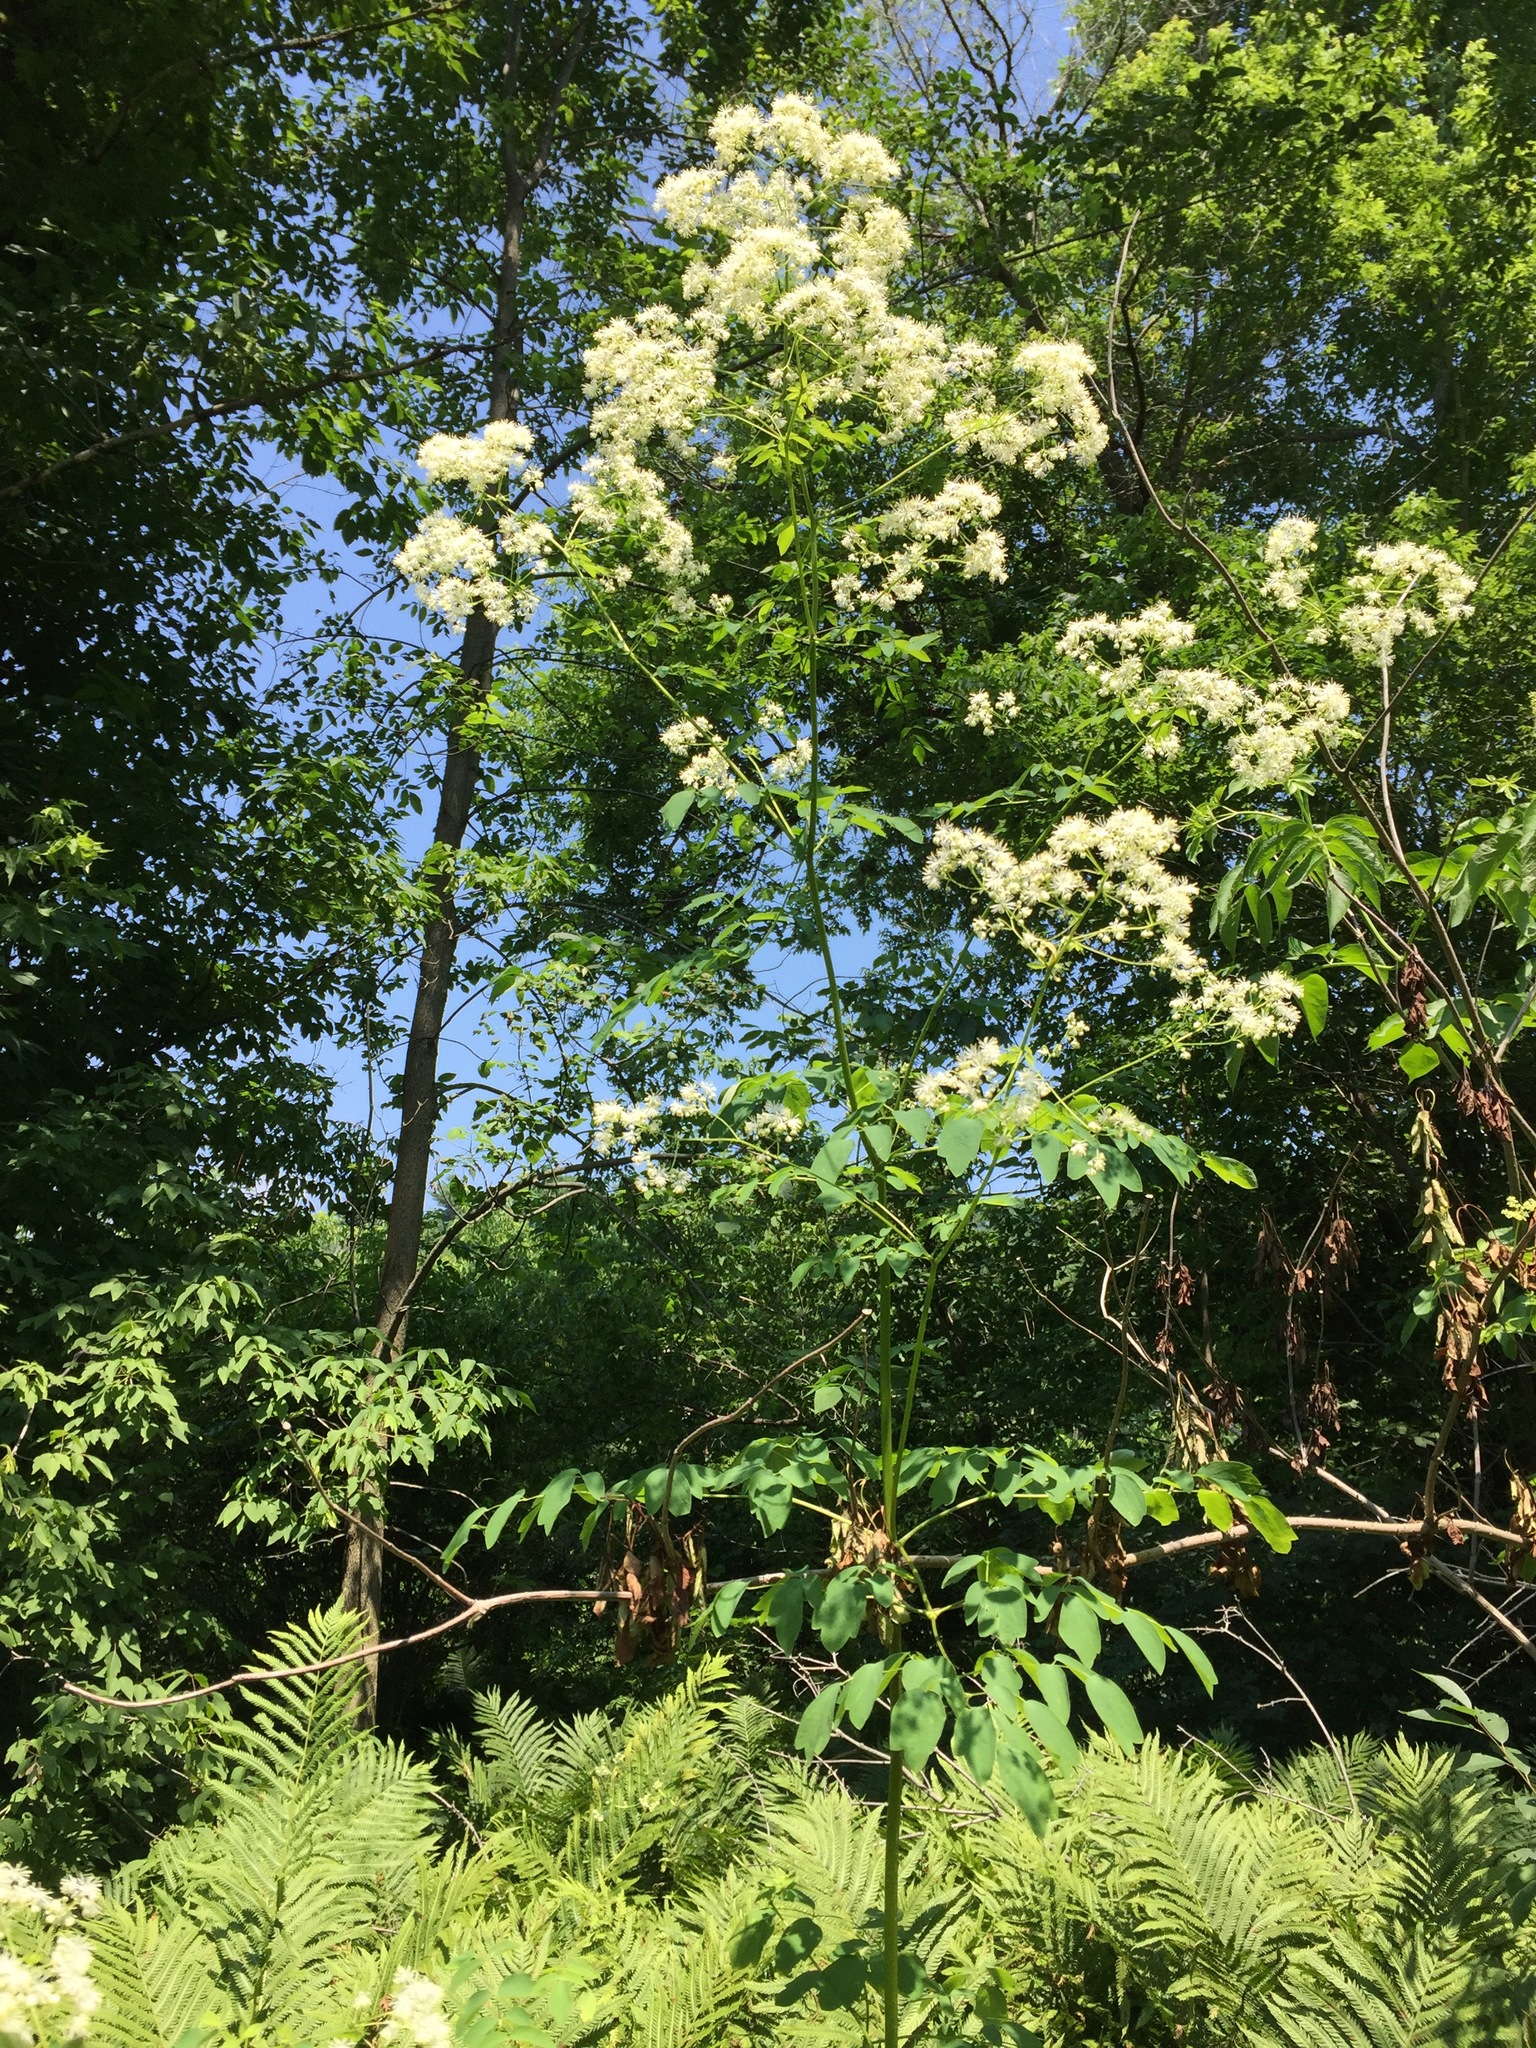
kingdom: Plantae
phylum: Tracheophyta
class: Magnoliopsida
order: Ranunculales
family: Ranunculaceae
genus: Thalictrum
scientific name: Thalictrum pubescens
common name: King-of-the-meadow
